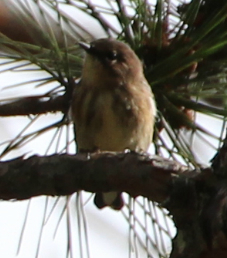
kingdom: Animalia
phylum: Chordata
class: Aves
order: Passeriformes
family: Parulidae
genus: Setophaga
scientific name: Setophaga coronata
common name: Myrtle warbler
